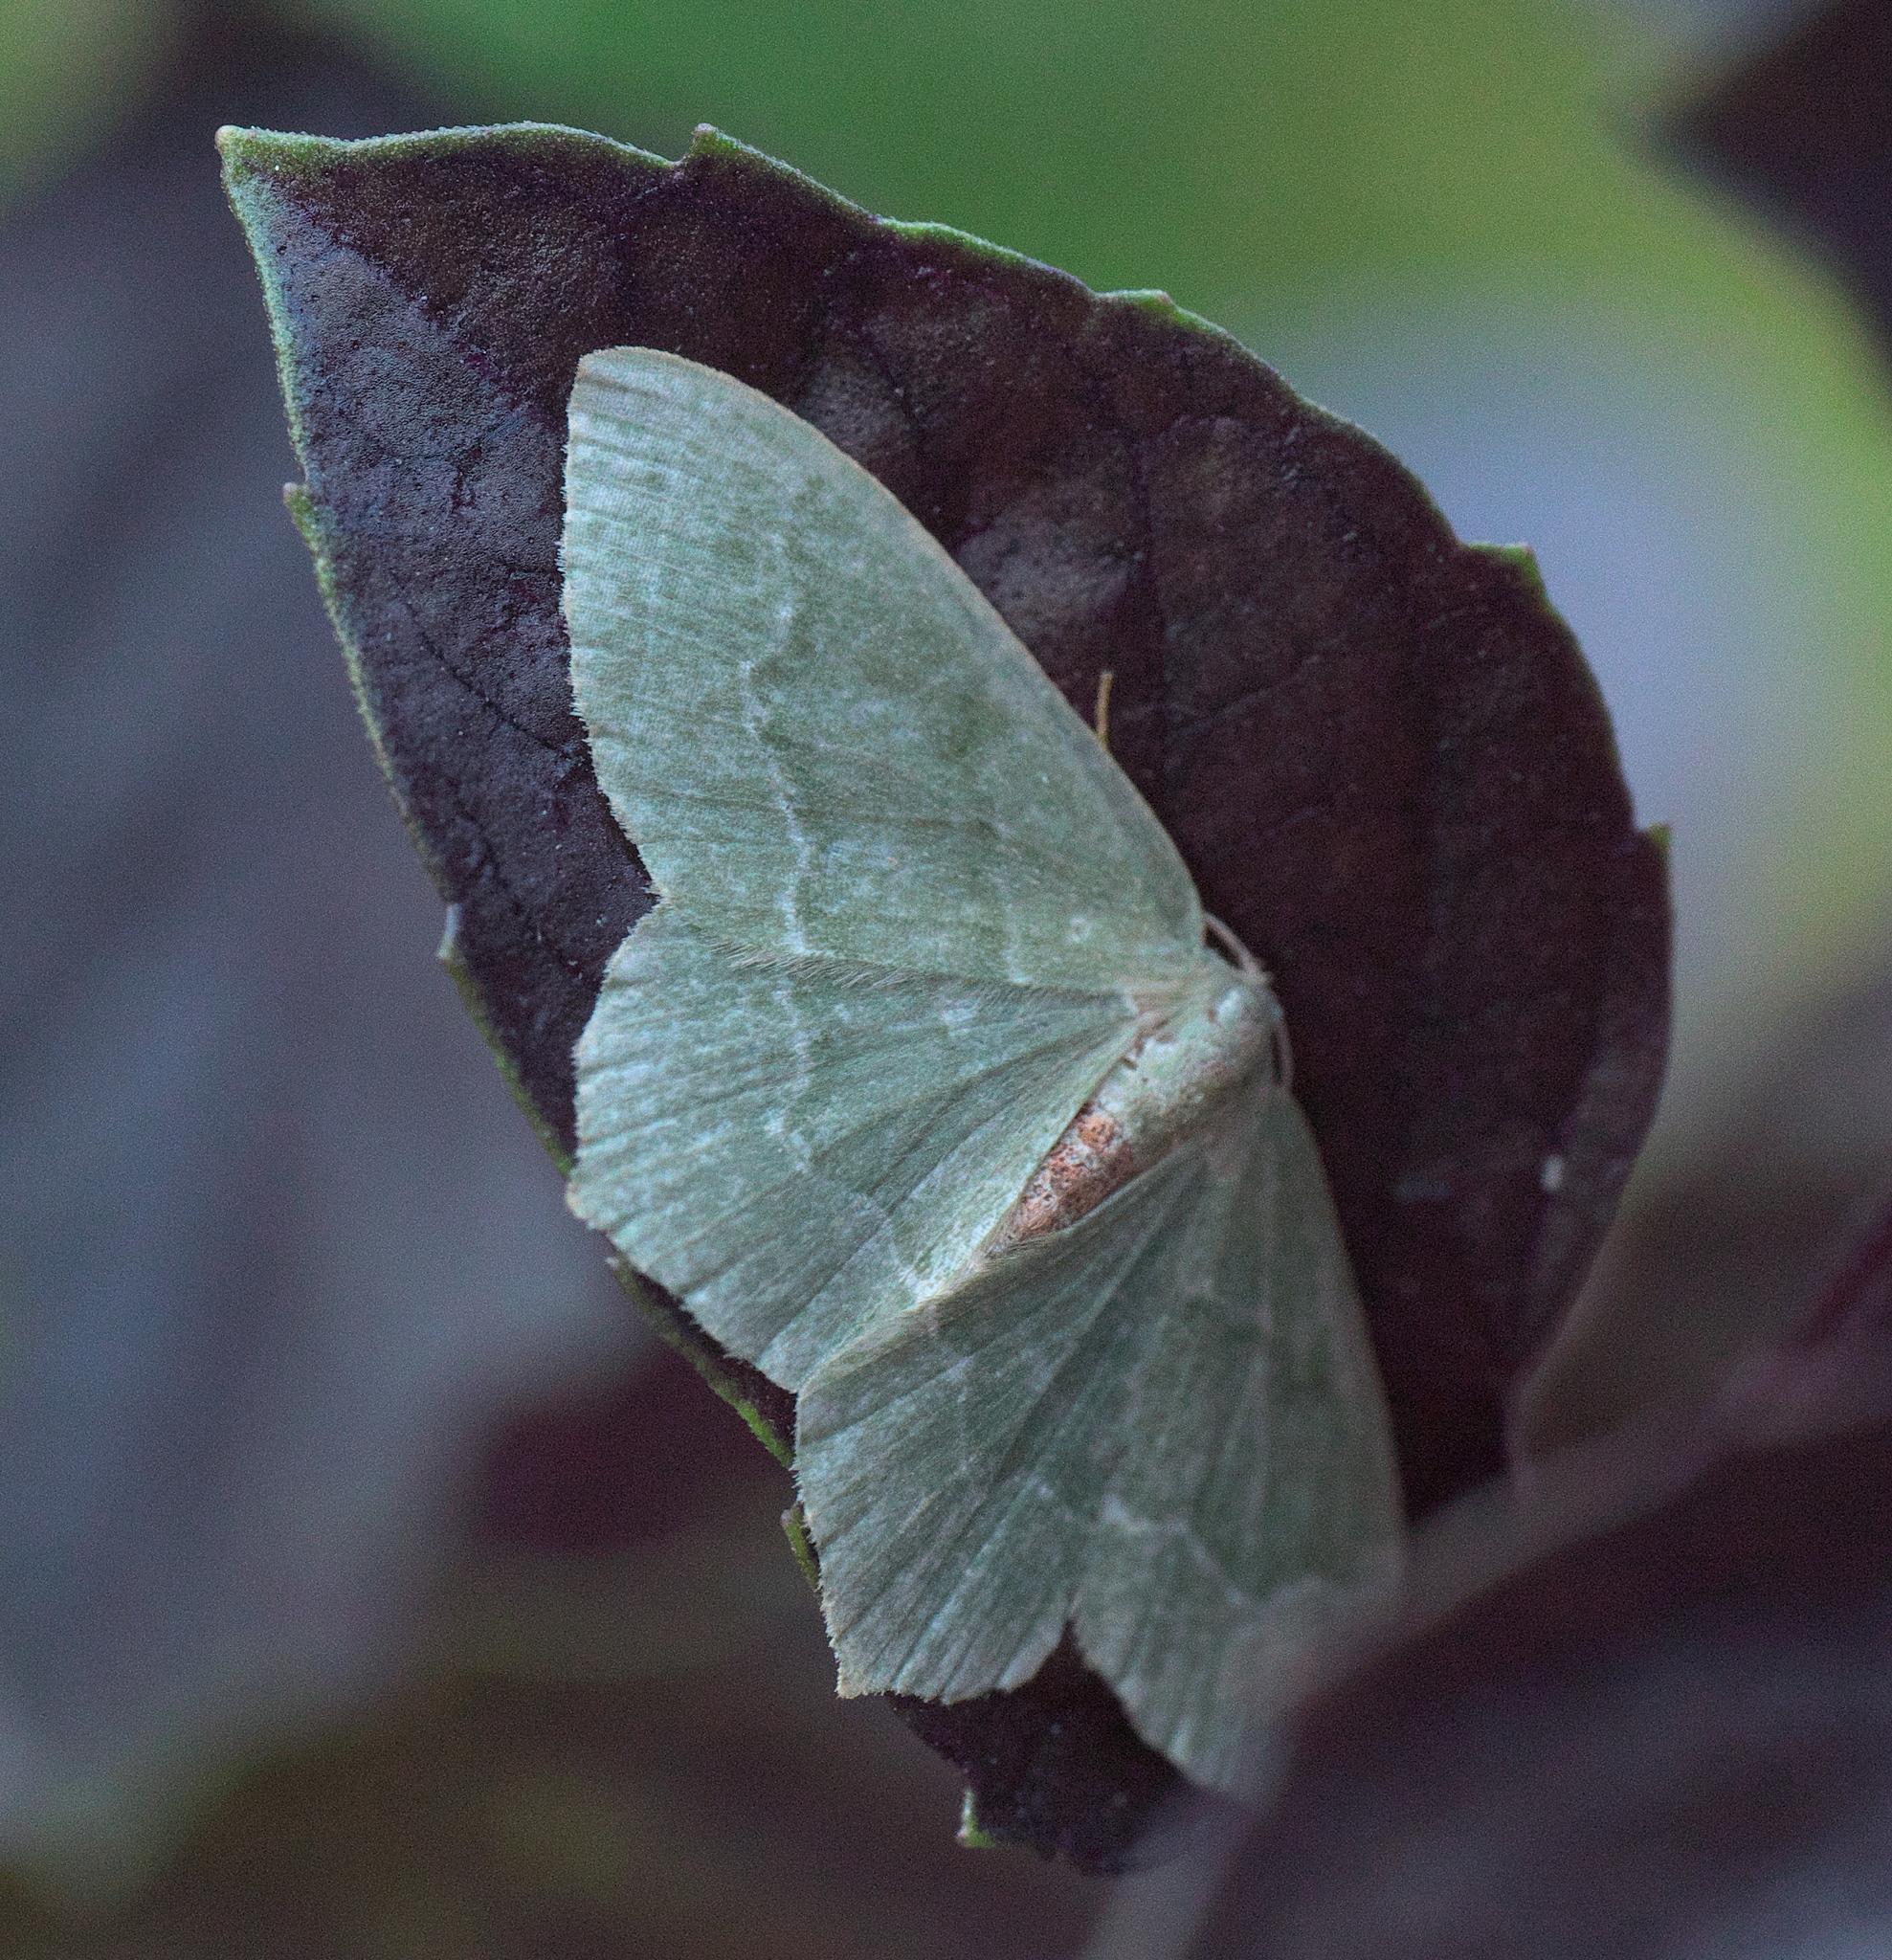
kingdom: Animalia
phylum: Arthropoda
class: Insecta
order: Lepidoptera
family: Geometridae
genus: Hemithea
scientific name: Hemithea aestivaria
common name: Common emerald
